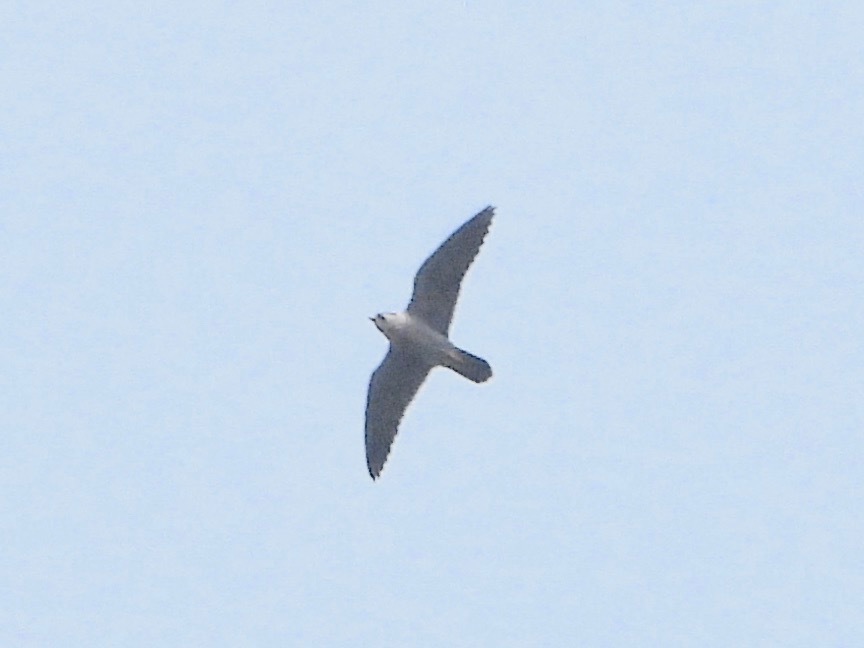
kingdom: Animalia
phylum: Chordata
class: Aves
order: Falconiformes
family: Falconidae
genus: Falco
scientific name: Falco peregrinus
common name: Peregrine falcon
